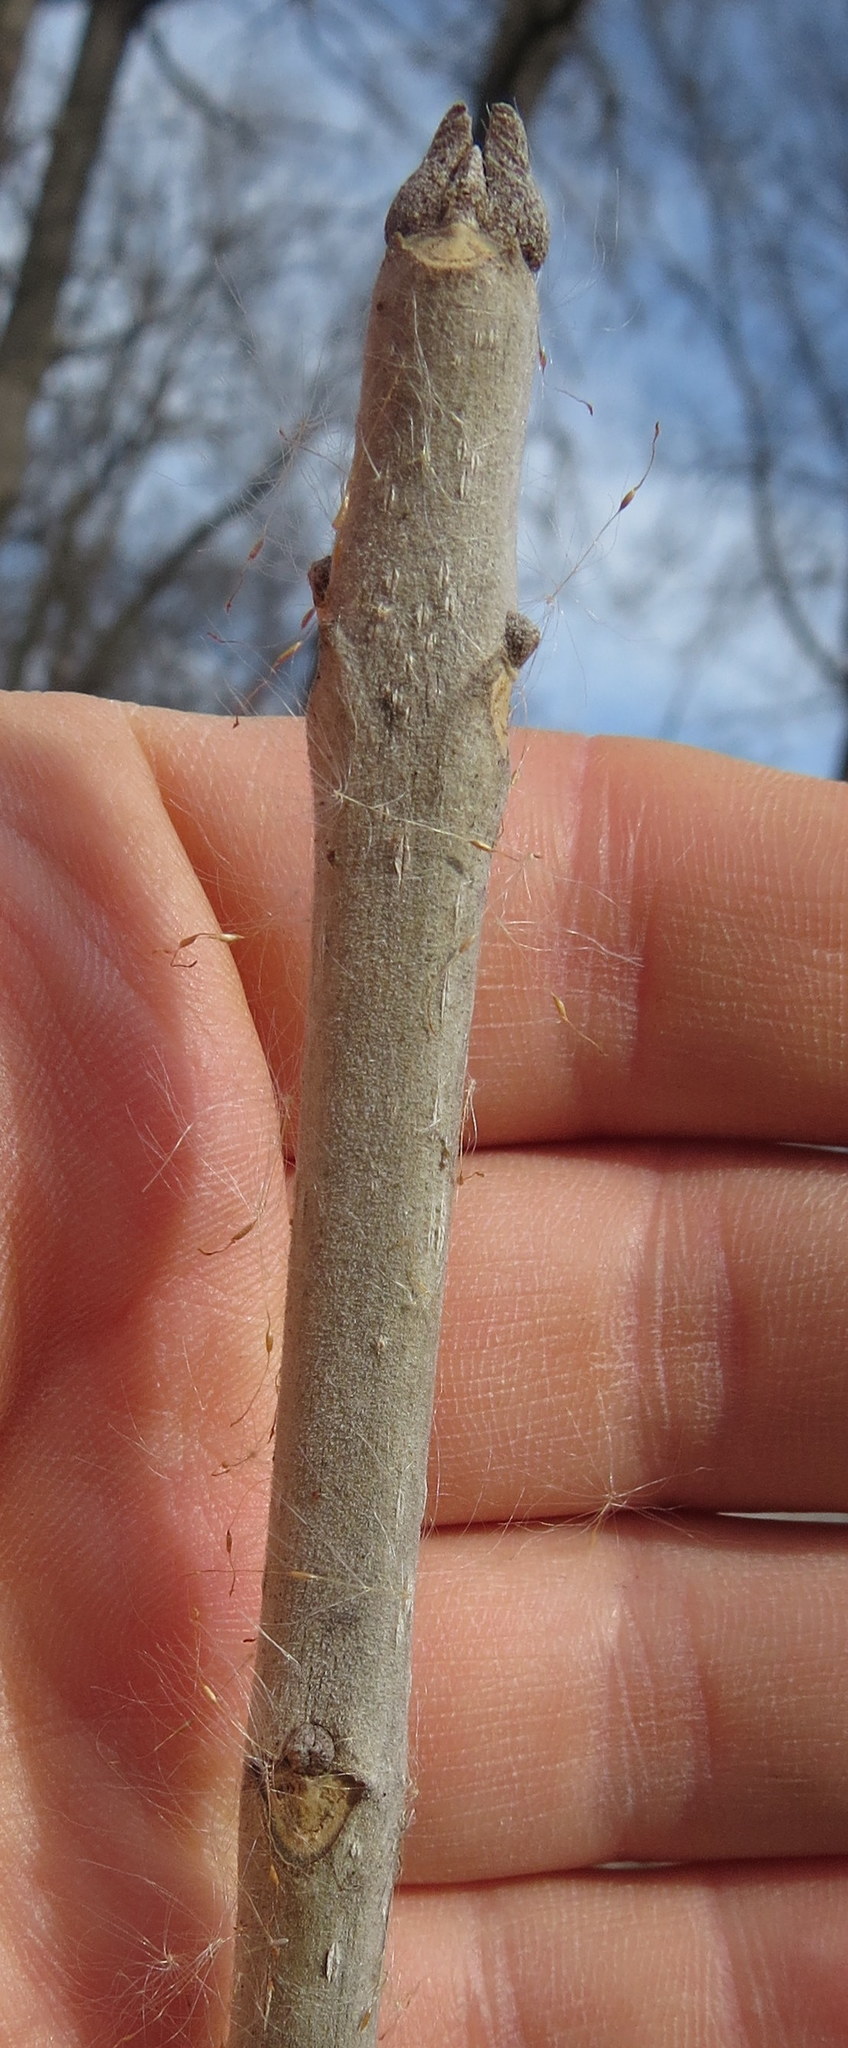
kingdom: Plantae
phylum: Tracheophyta
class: Magnoliopsida
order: Lamiales
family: Oleaceae
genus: Fraxinus
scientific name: Fraxinus pennsylvanica
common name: Green ash
